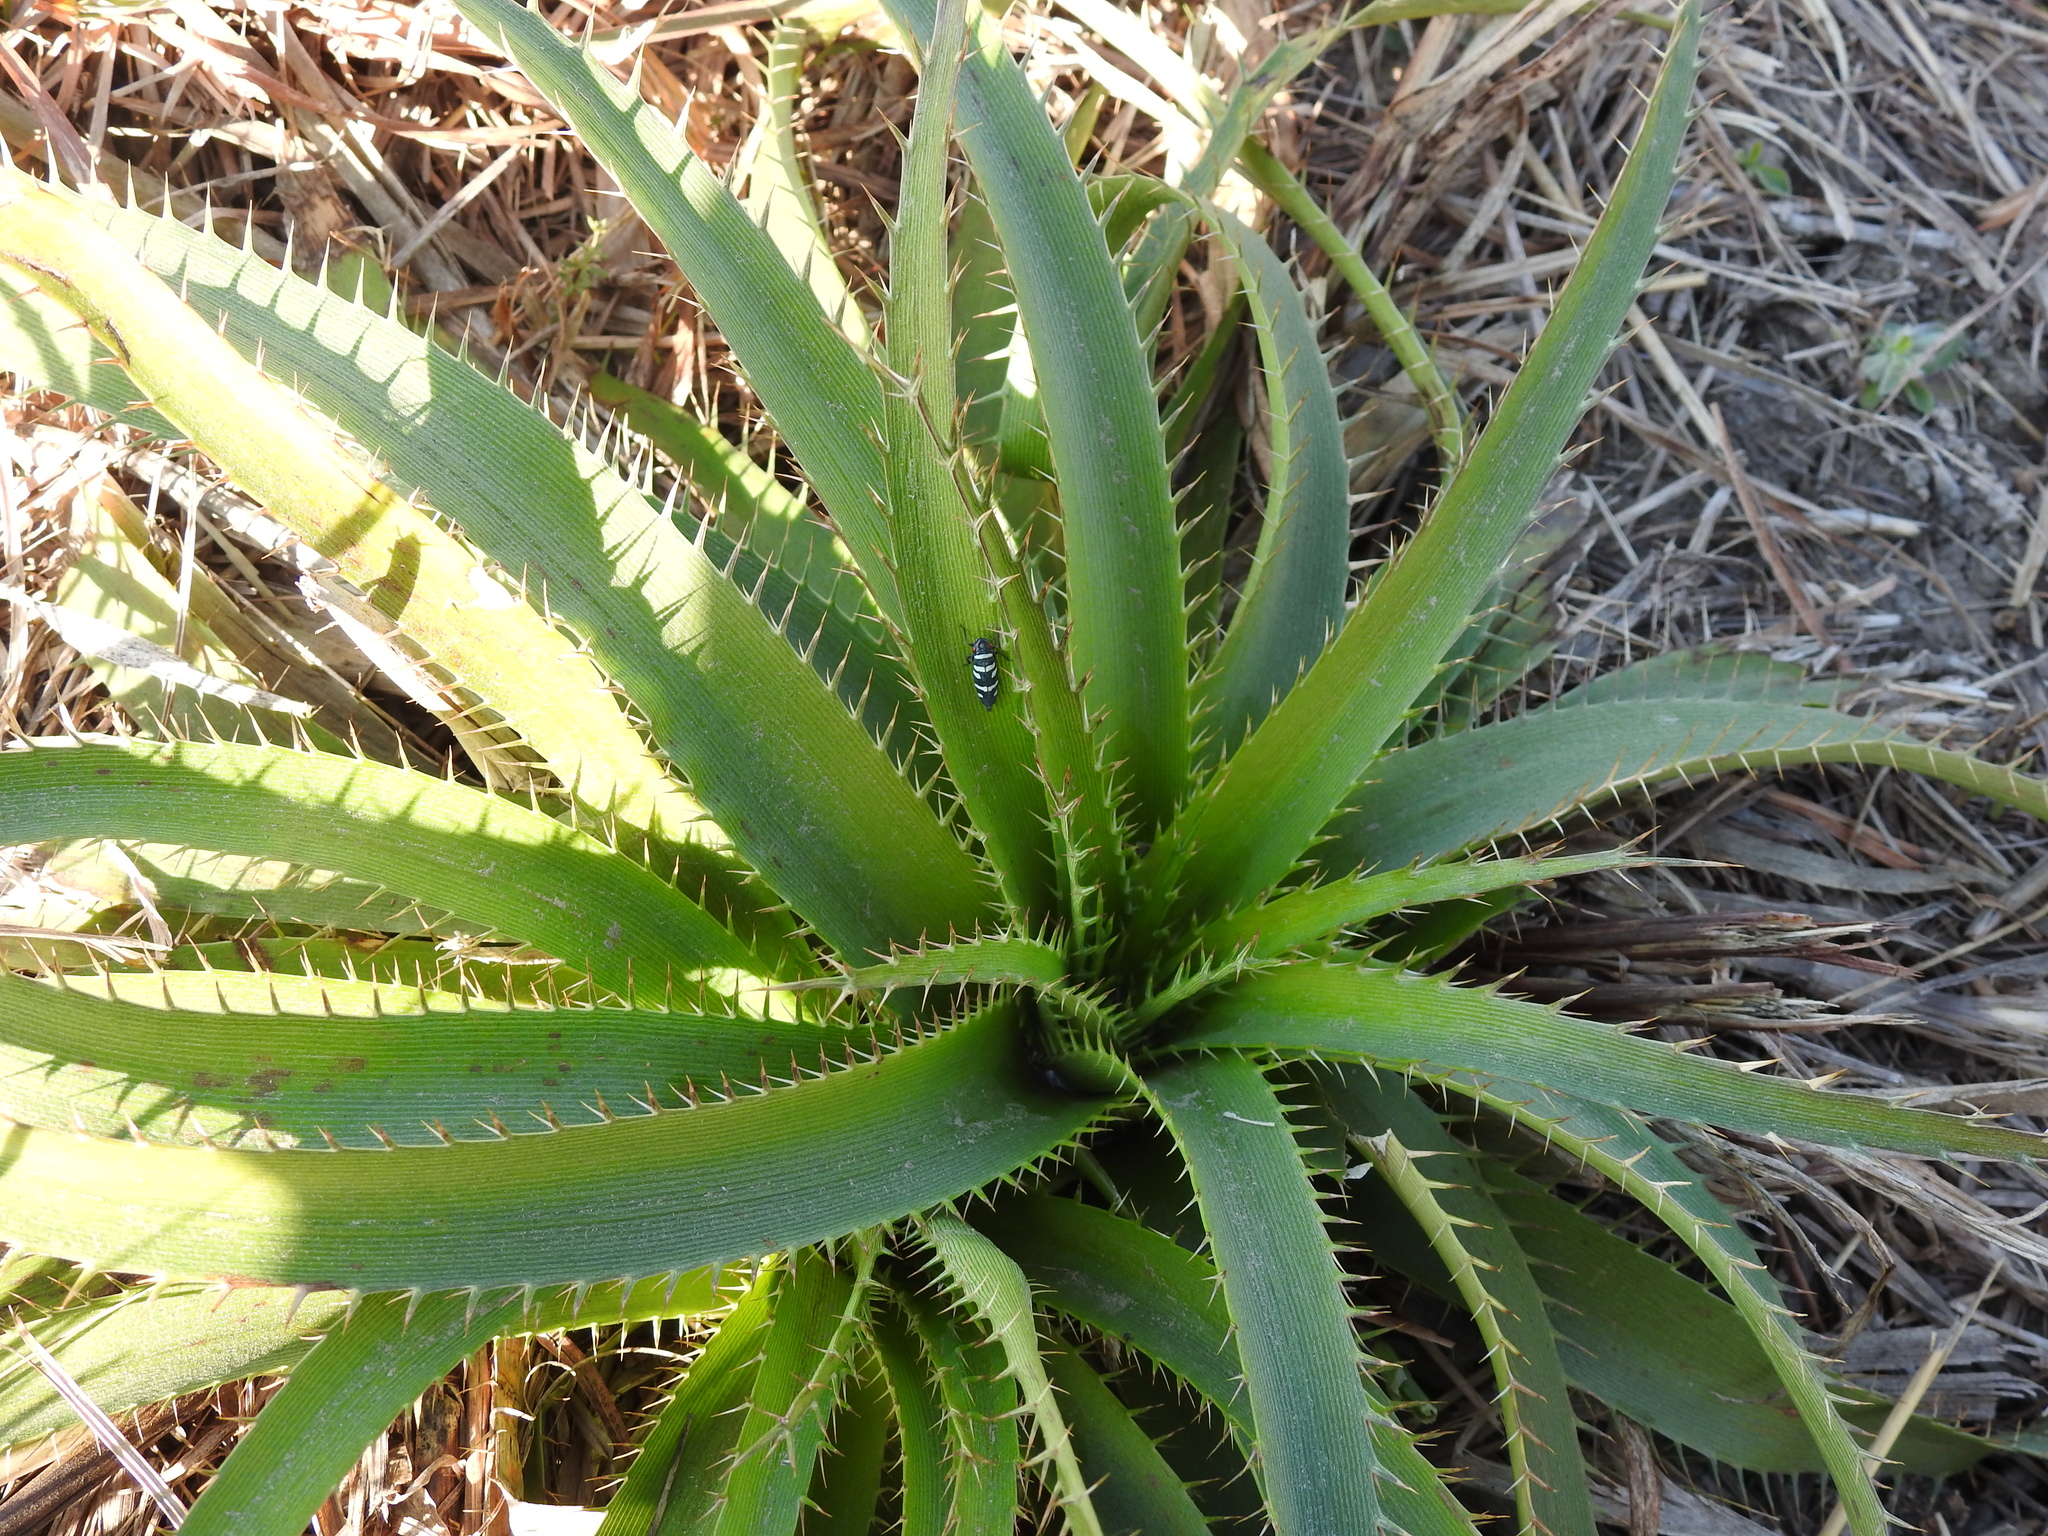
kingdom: Plantae
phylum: Tracheophyta
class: Magnoliopsida
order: Apiales
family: Apiaceae
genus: Eryngium
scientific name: Eryngium horridum
